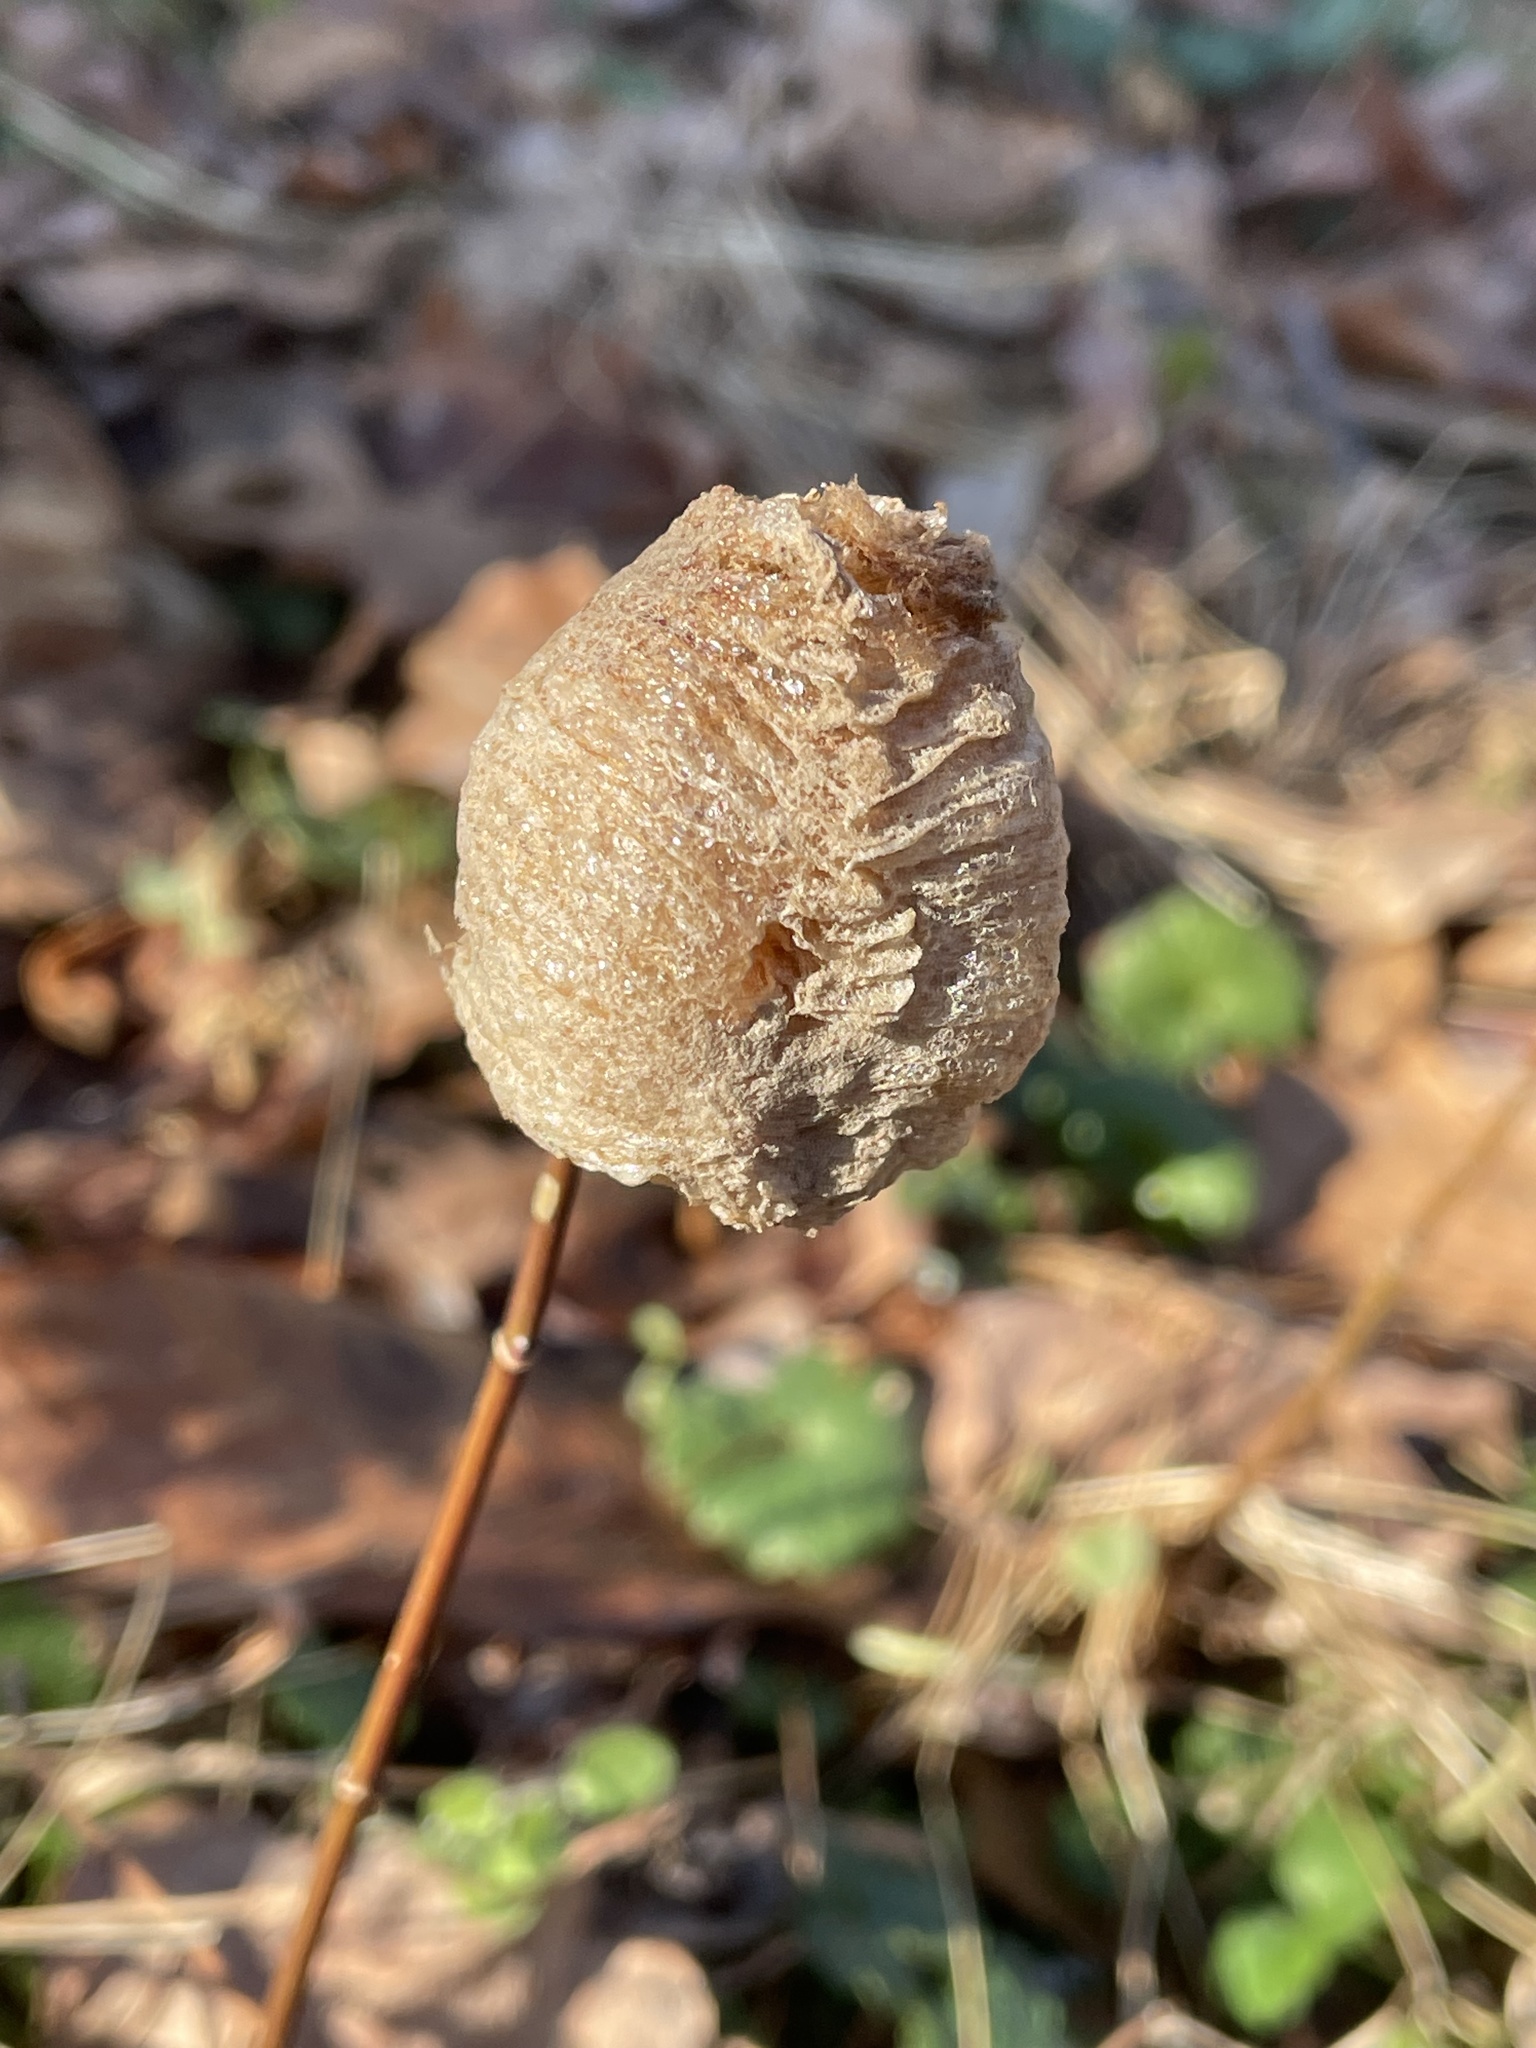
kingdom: Animalia
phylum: Arthropoda
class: Insecta
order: Mantodea
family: Mantidae
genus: Tenodera
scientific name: Tenodera sinensis
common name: Chinese mantis
